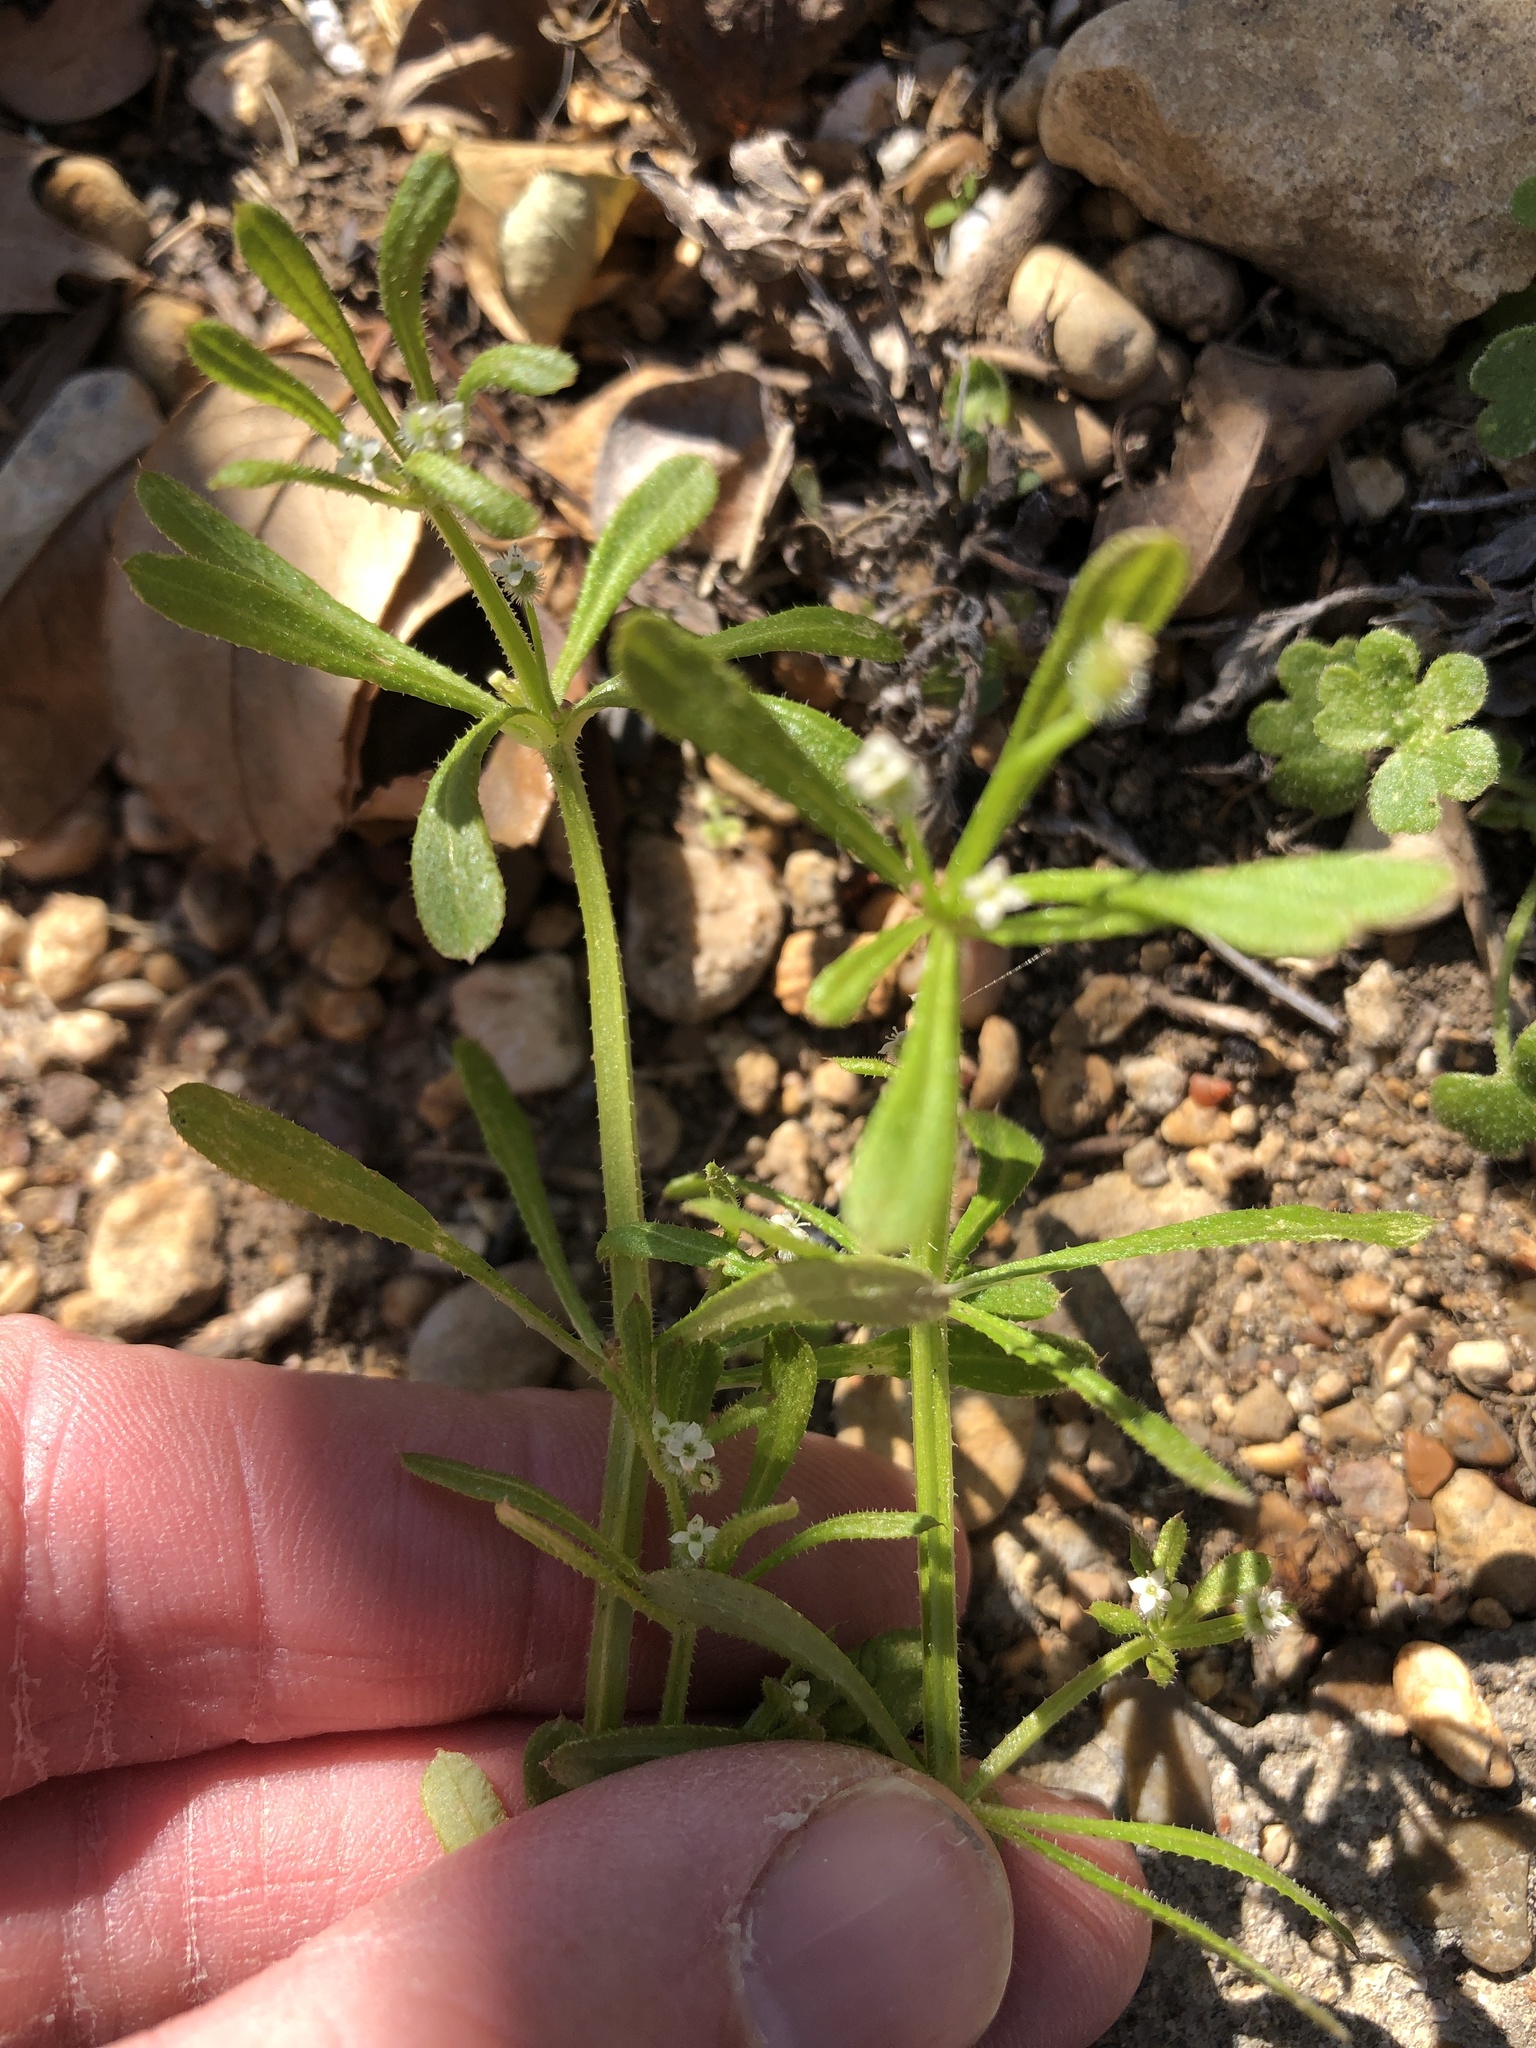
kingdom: Plantae
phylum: Tracheophyta
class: Magnoliopsida
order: Gentianales
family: Rubiaceae
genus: Galium
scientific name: Galium aparine
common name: Cleavers
